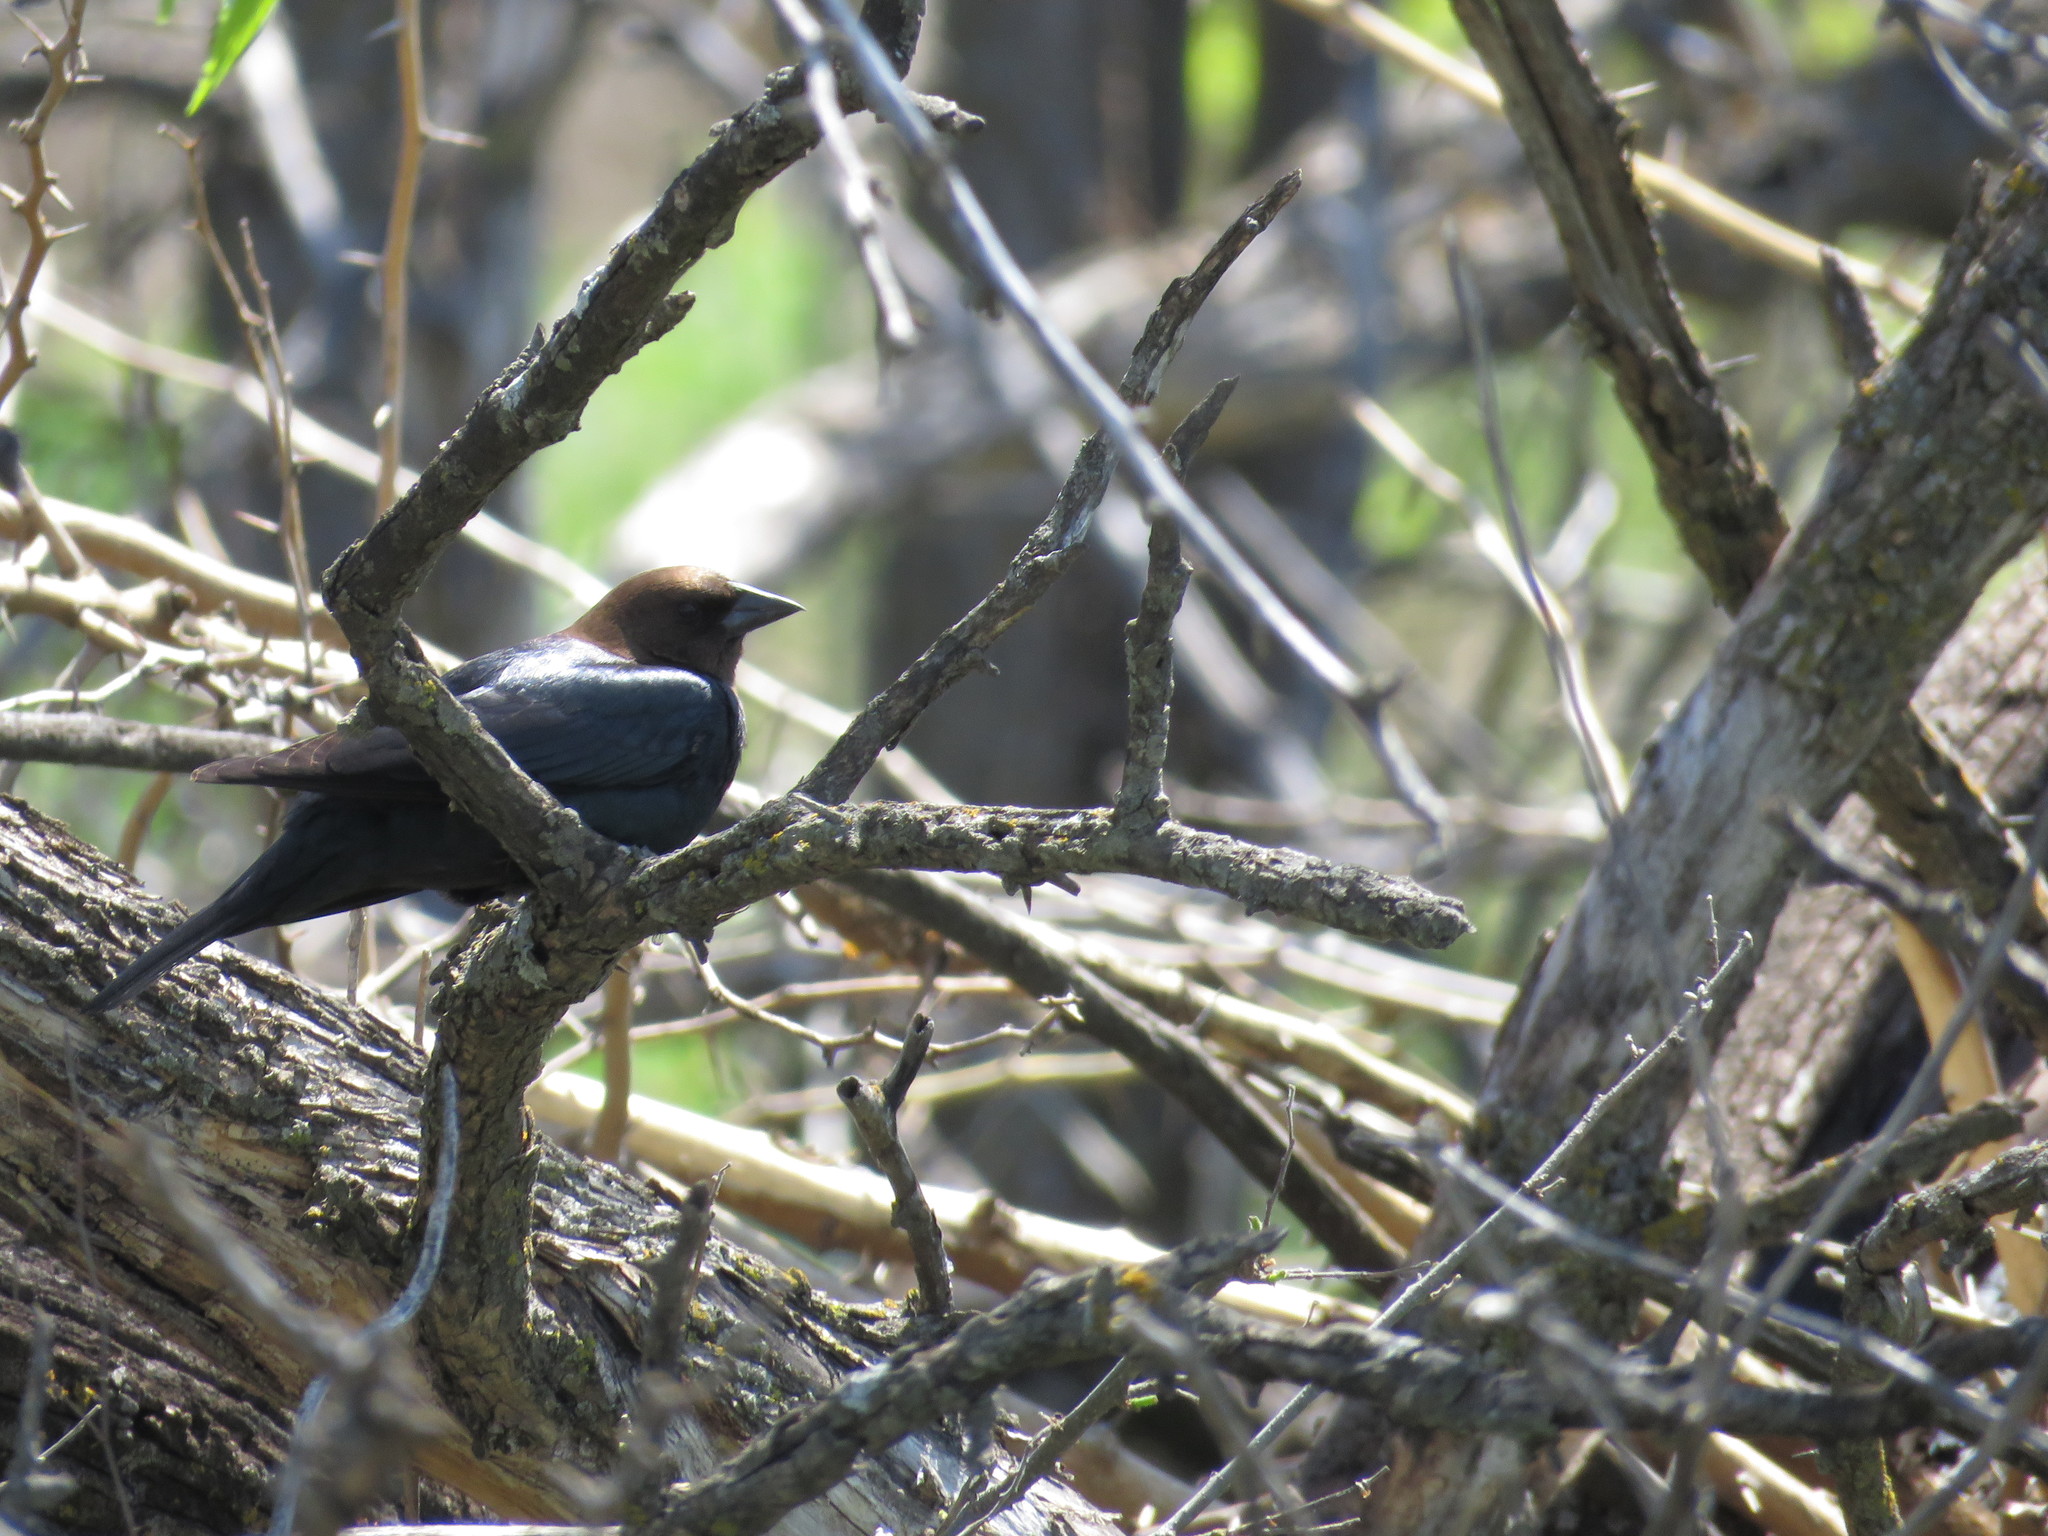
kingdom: Animalia
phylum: Chordata
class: Aves
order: Passeriformes
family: Icteridae
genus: Molothrus
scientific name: Molothrus ater
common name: Brown-headed cowbird
